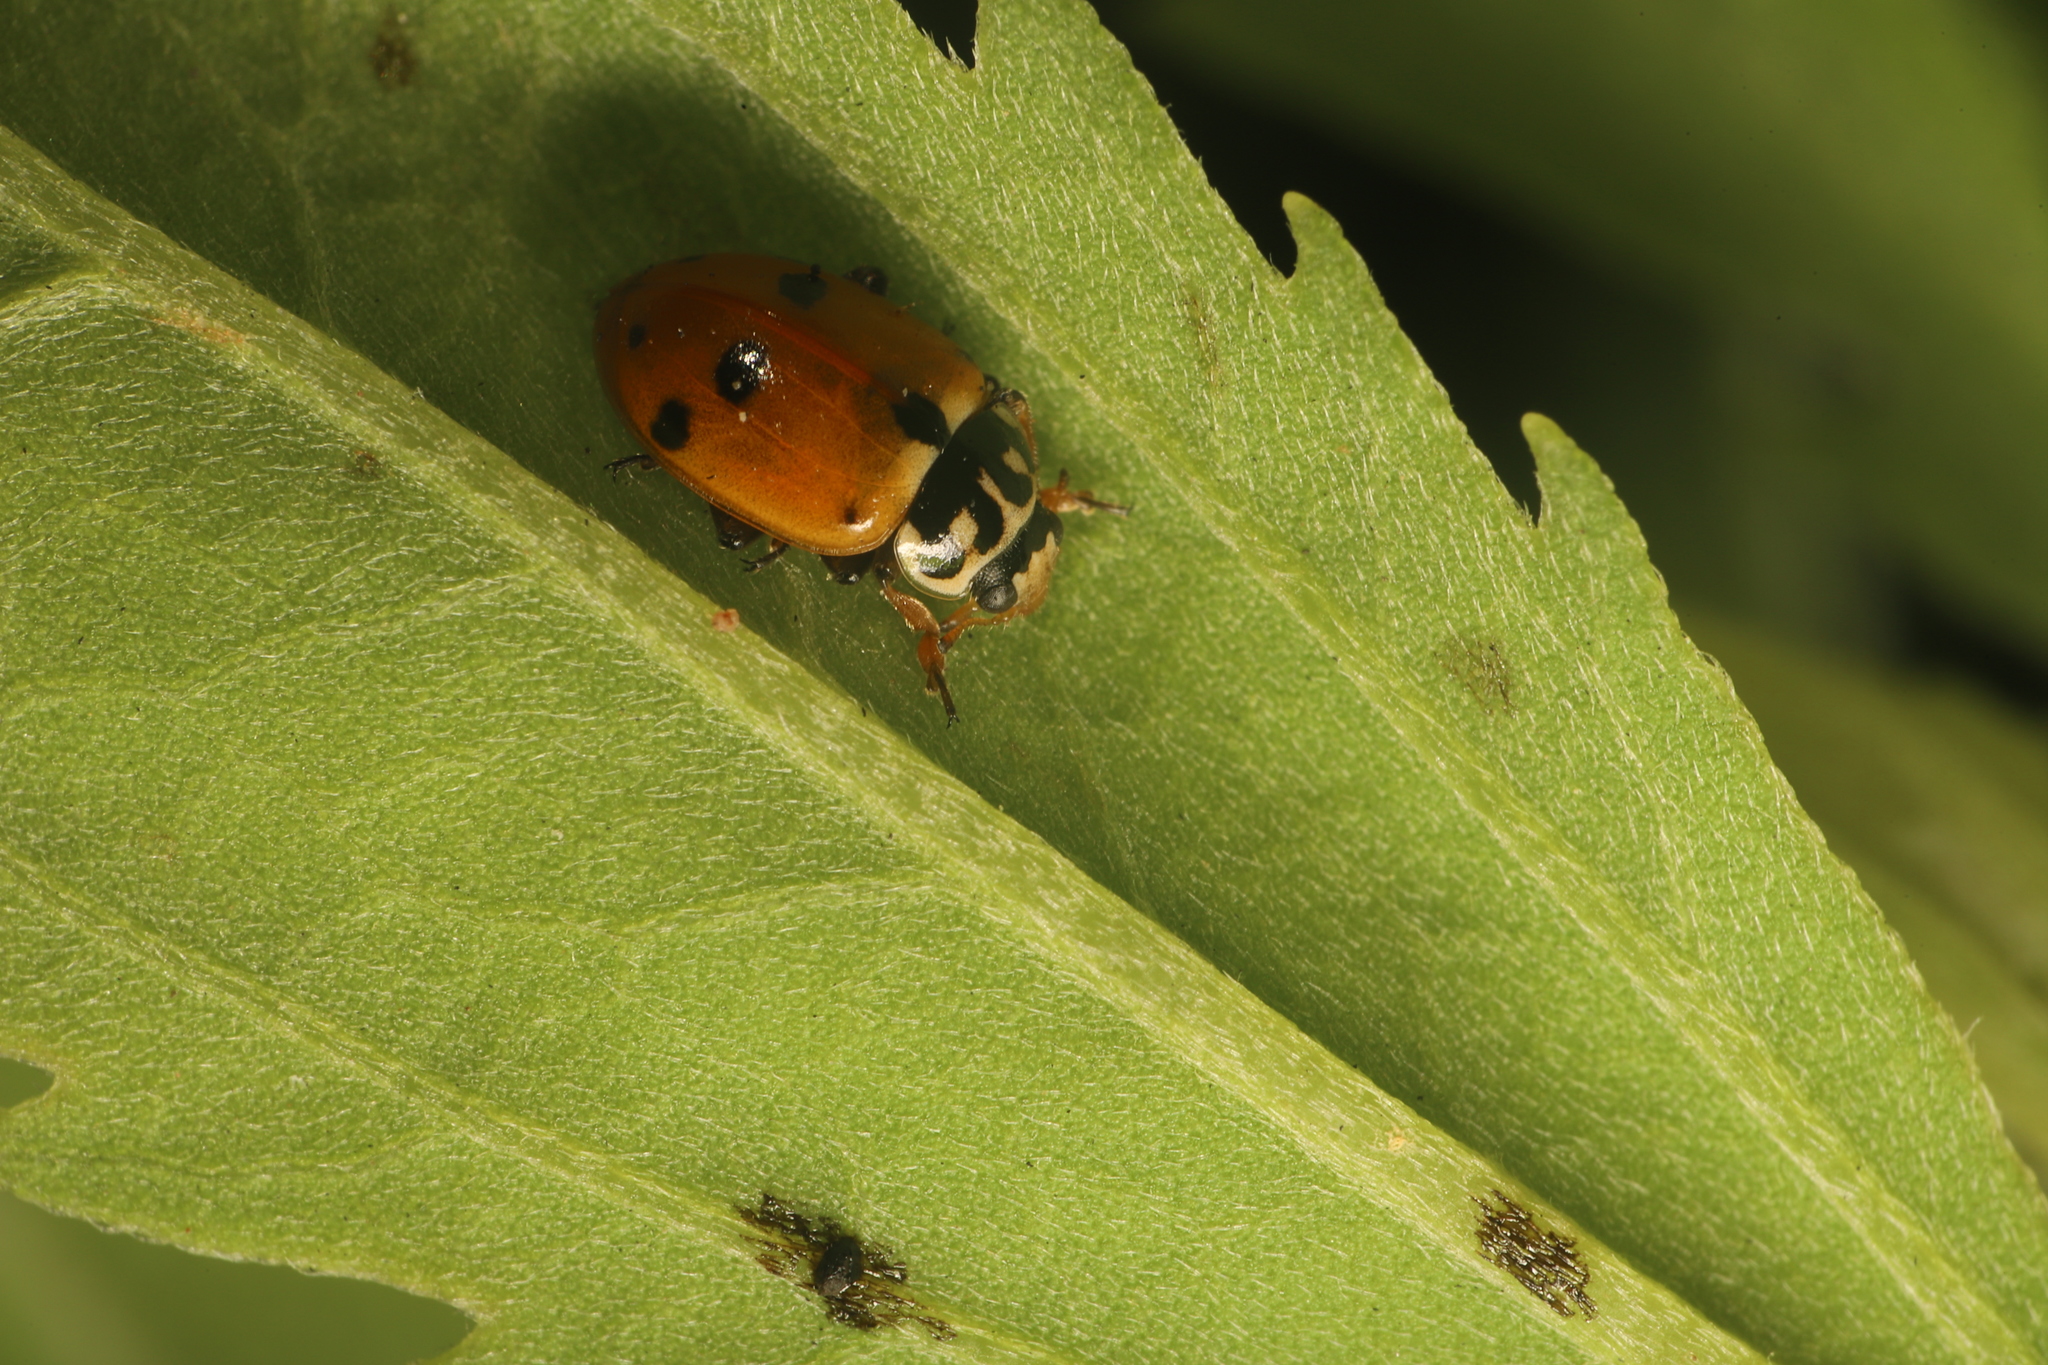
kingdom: Animalia
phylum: Arthropoda
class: Insecta
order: Coleoptera
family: Coccinellidae
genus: Hippodamia
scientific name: Hippodamia variegata
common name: Ladybird beetle
